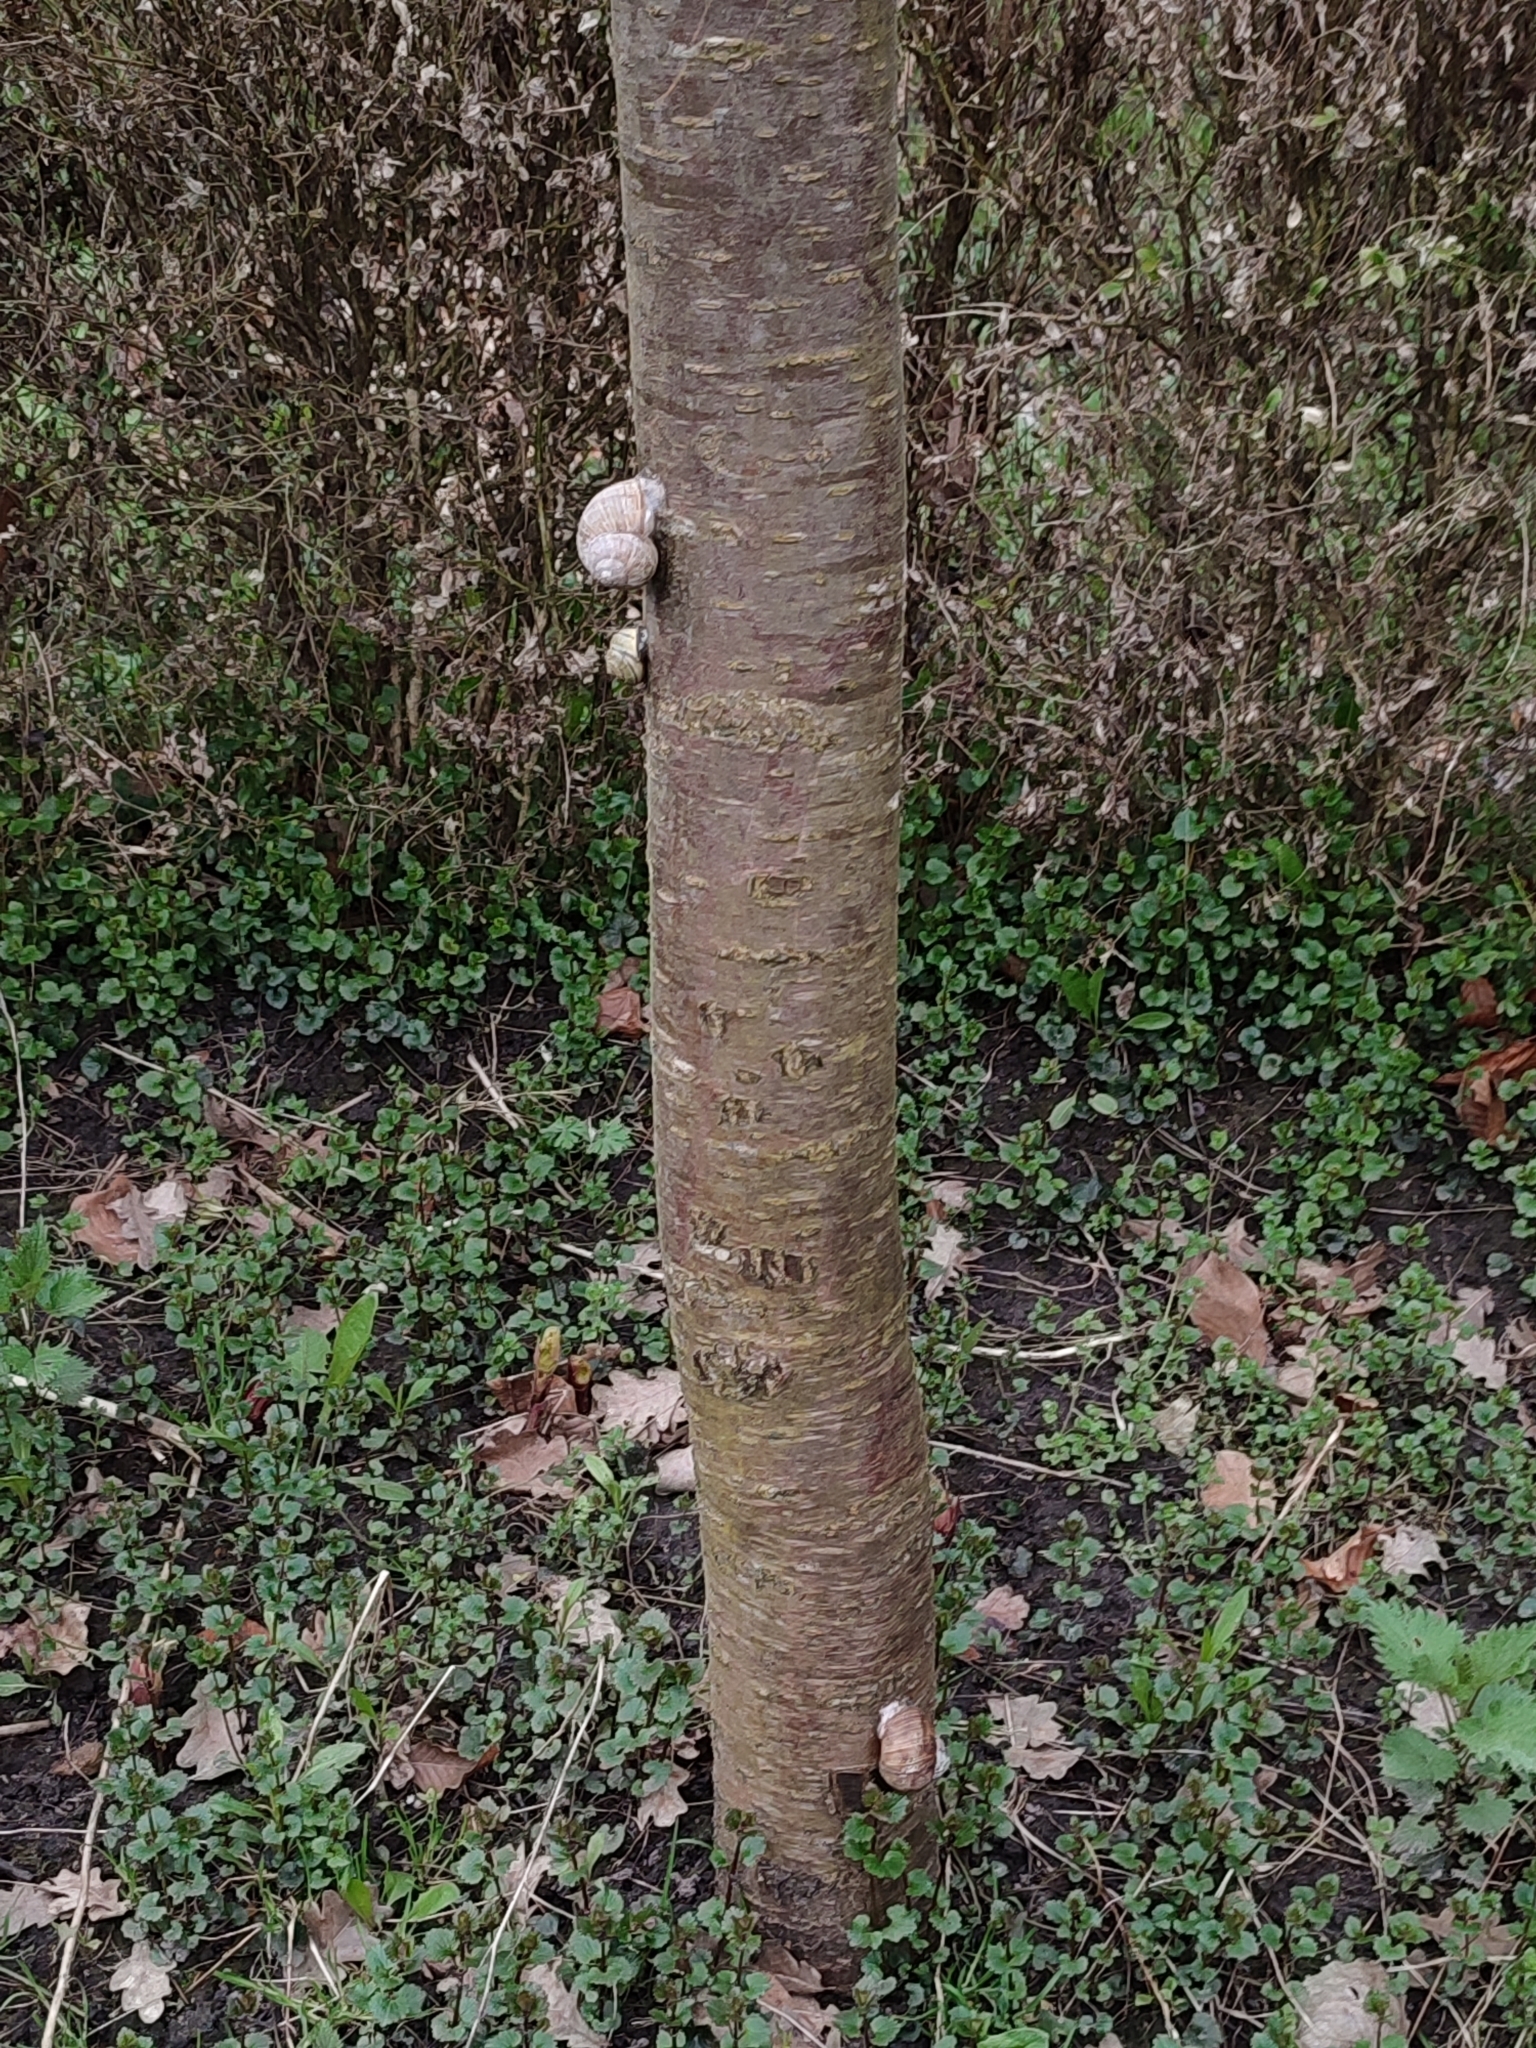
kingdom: Animalia
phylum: Mollusca
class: Gastropoda
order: Stylommatophora
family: Helicidae
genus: Helix
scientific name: Helix pomatia
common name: Roman snail
